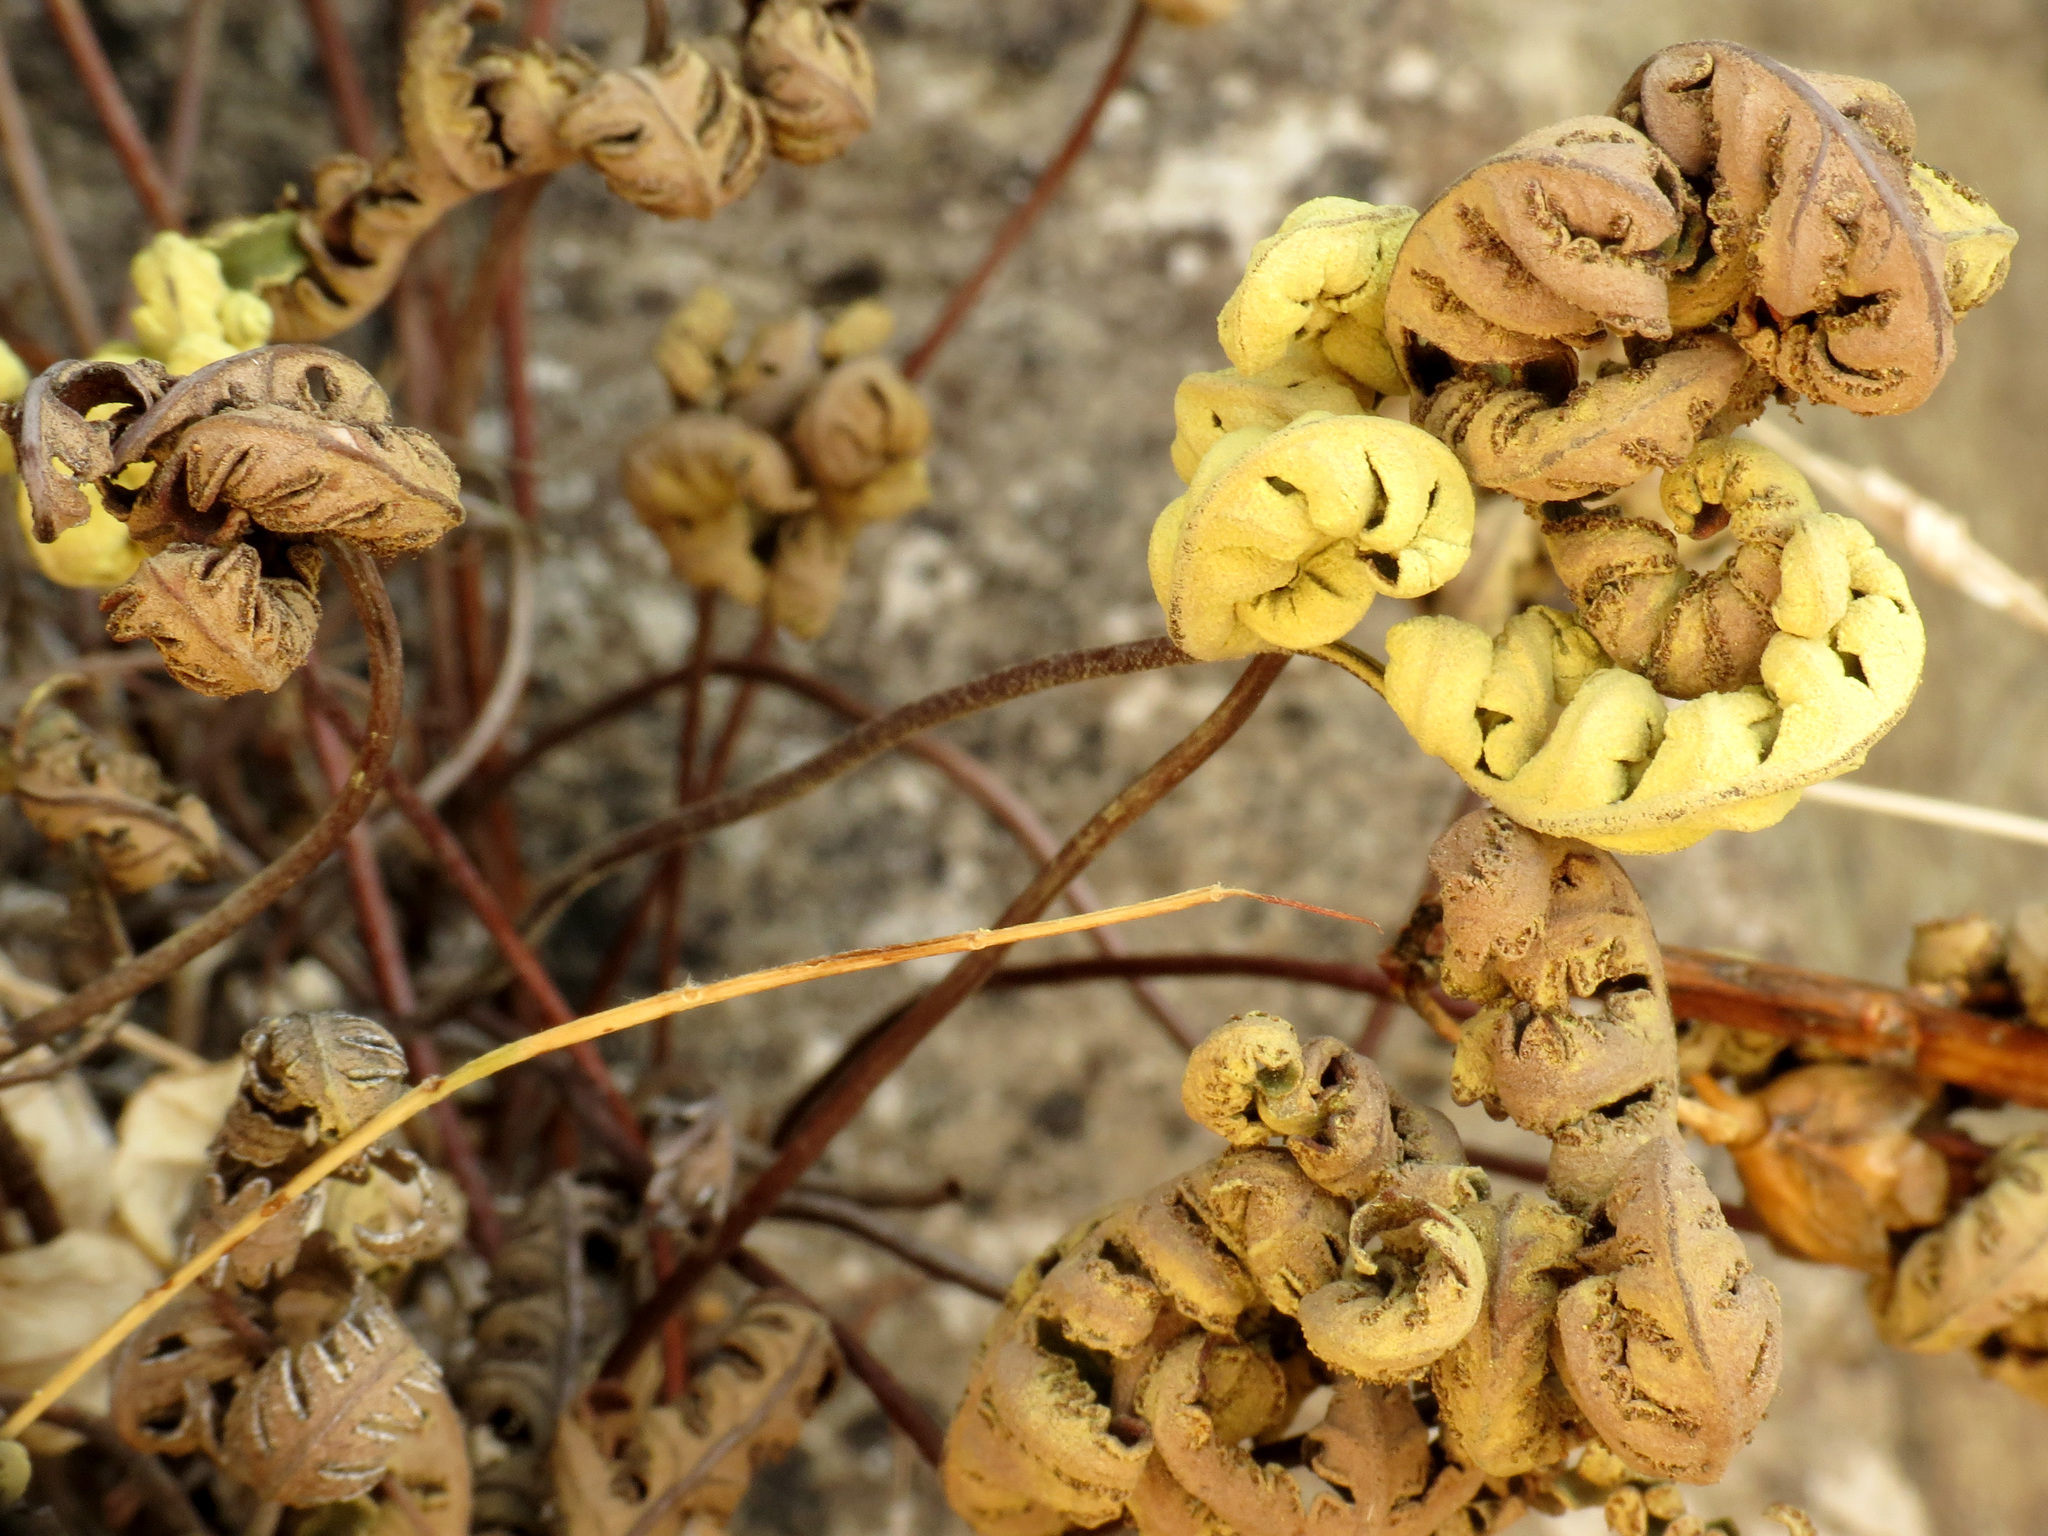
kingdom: Plantae
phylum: Tracheophyta
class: Polypodiopsida
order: Polypodiales
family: Pteridaceae
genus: Notholaena
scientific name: Notholaena standleyi
